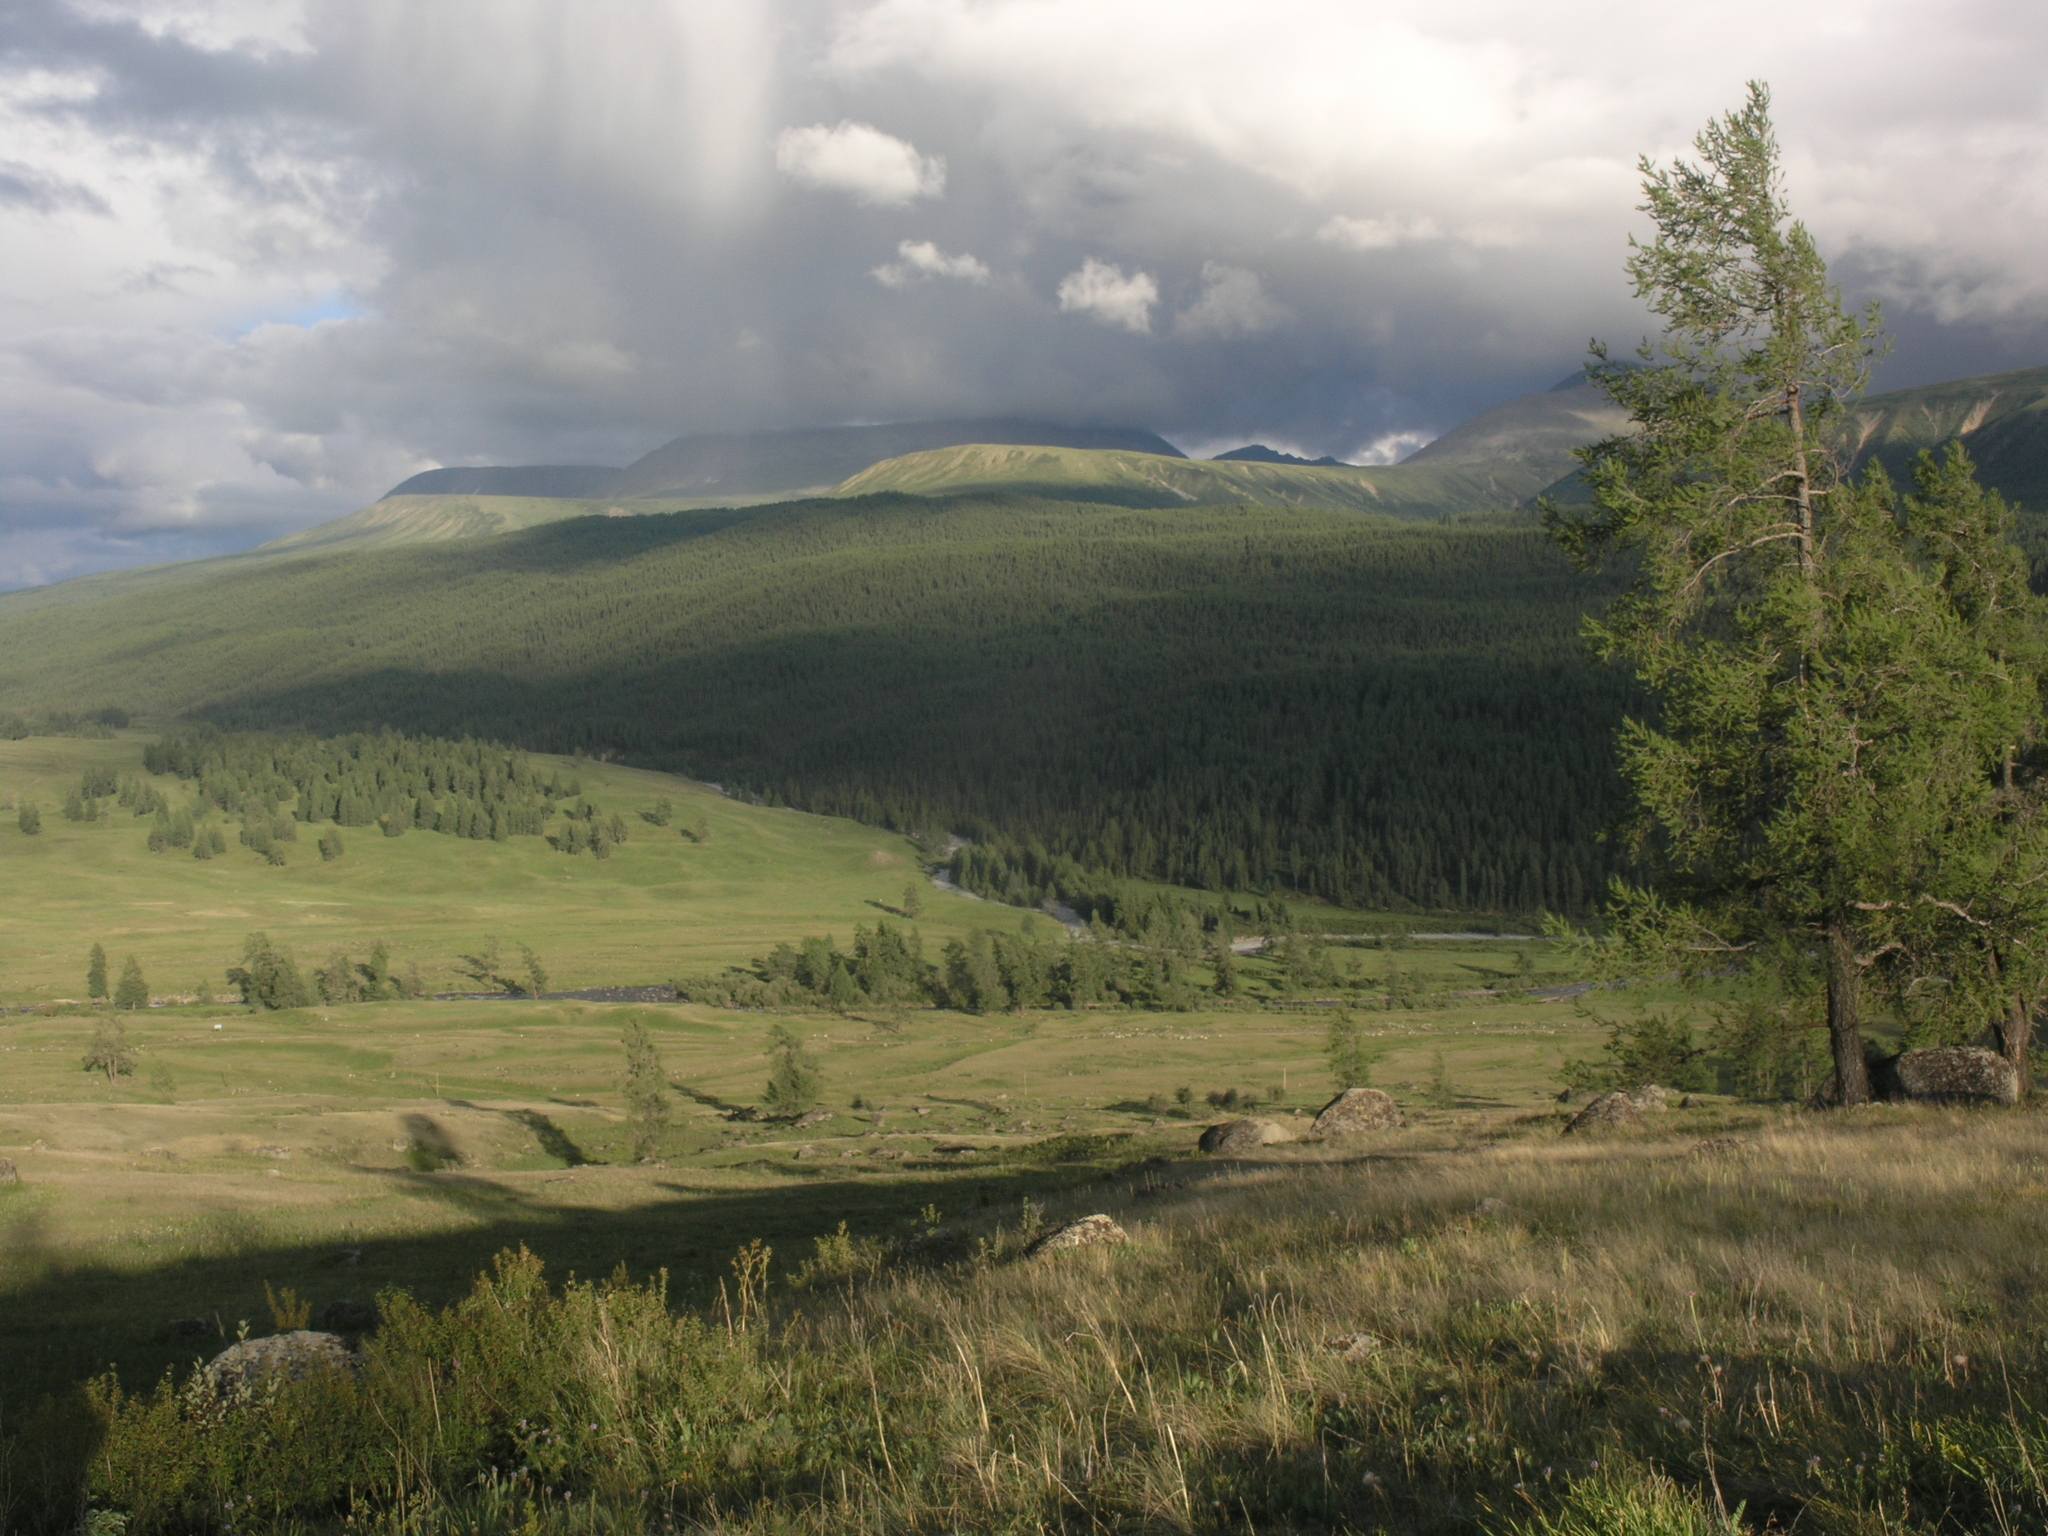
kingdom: Plantae
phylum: Tracheophyta
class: Pinopsida
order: Pinales
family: Pinaceae
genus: Larix
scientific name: Larix sibirica
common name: Siberian larch
